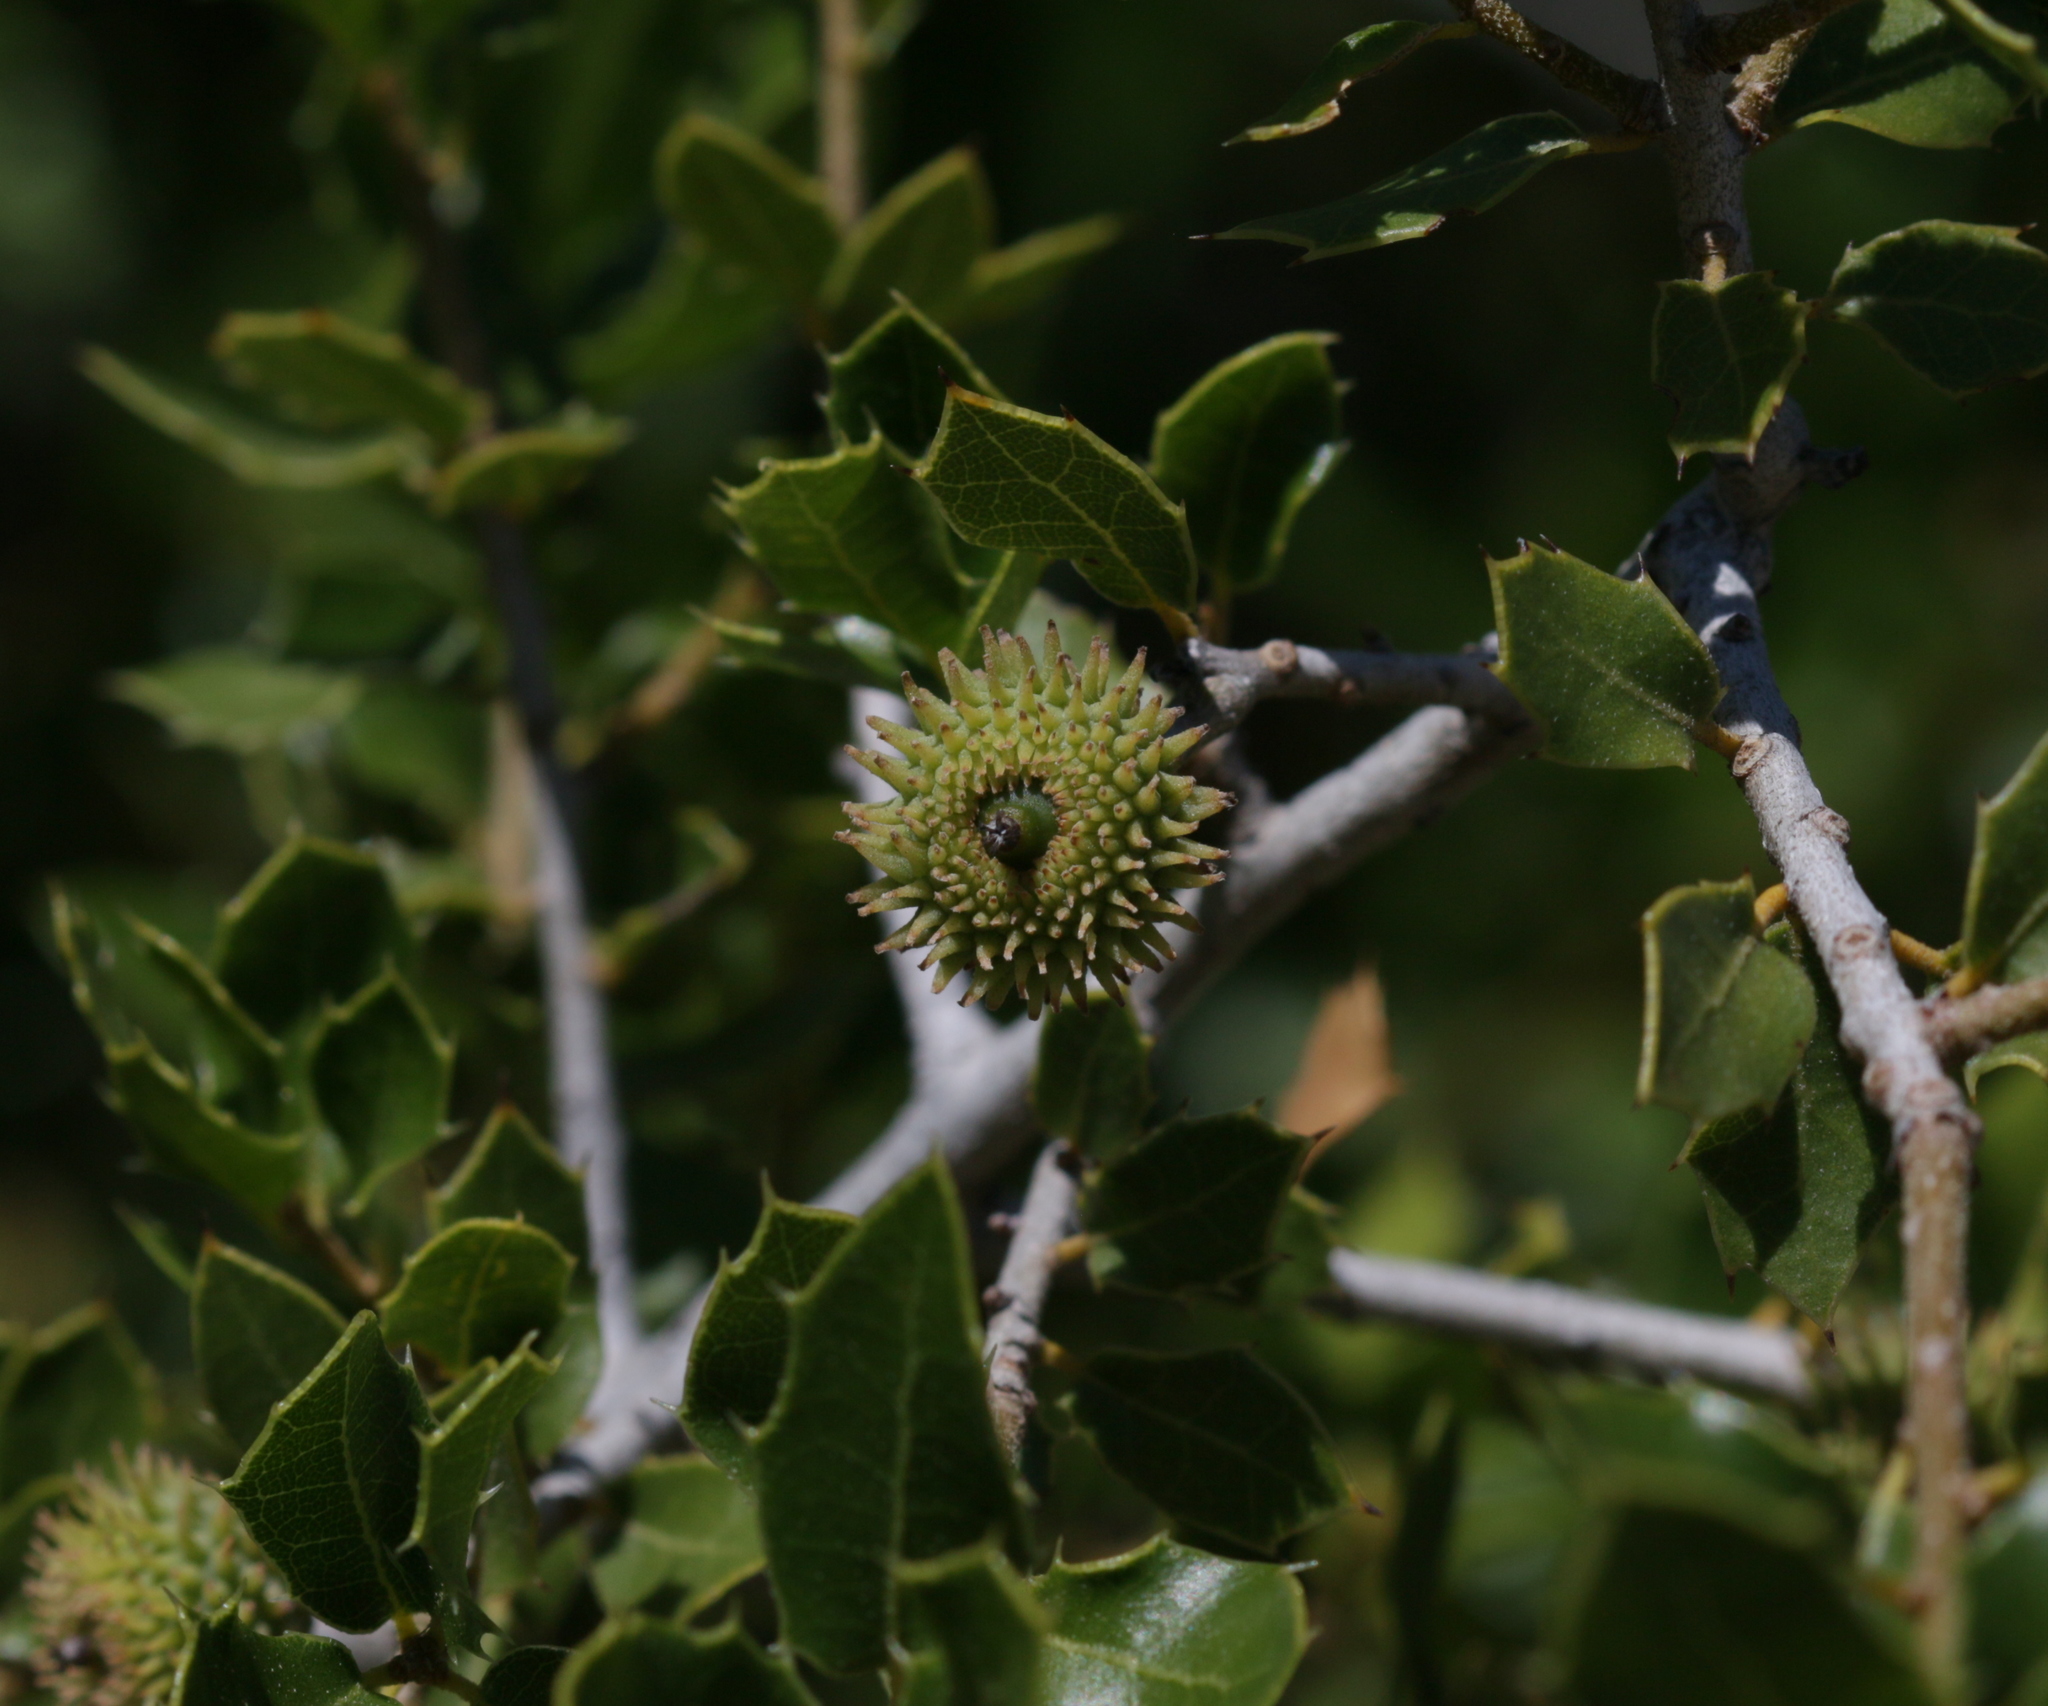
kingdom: Plantae
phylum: Tracheophyta
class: Magnoliopsida
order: Fagales
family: Fagaceae
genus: Quercus
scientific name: Quercus coccifera
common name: Kermes oak
